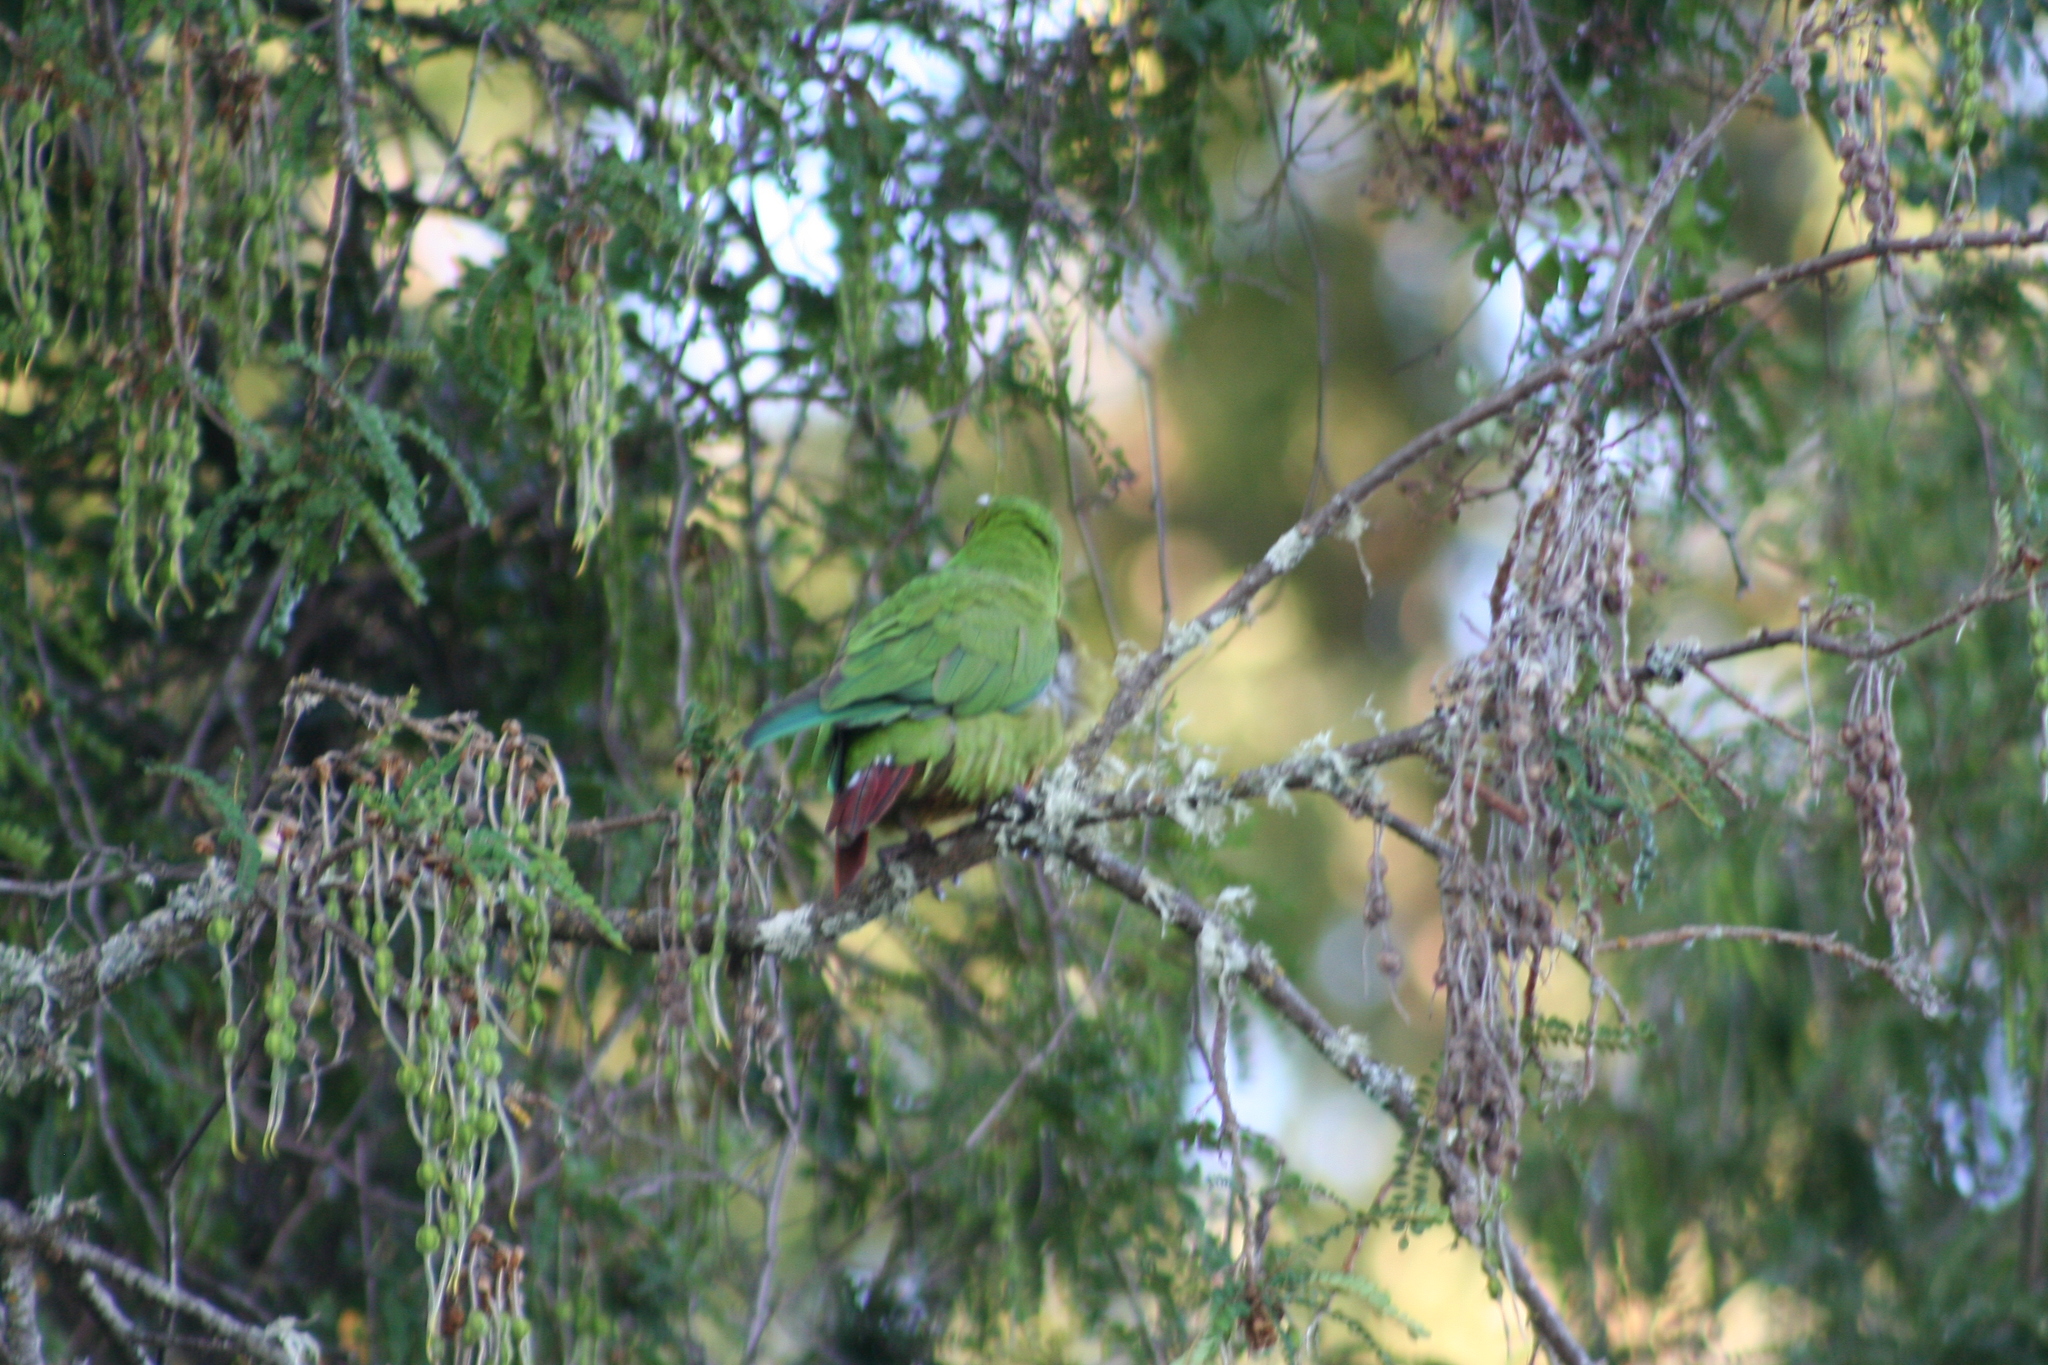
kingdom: Animalia
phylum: Chordata
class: Aves
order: Psittaciformes
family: Psittacidae
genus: Enicognathus
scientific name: Enicognathus leptorhynchus
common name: Slender-billed parakeet
